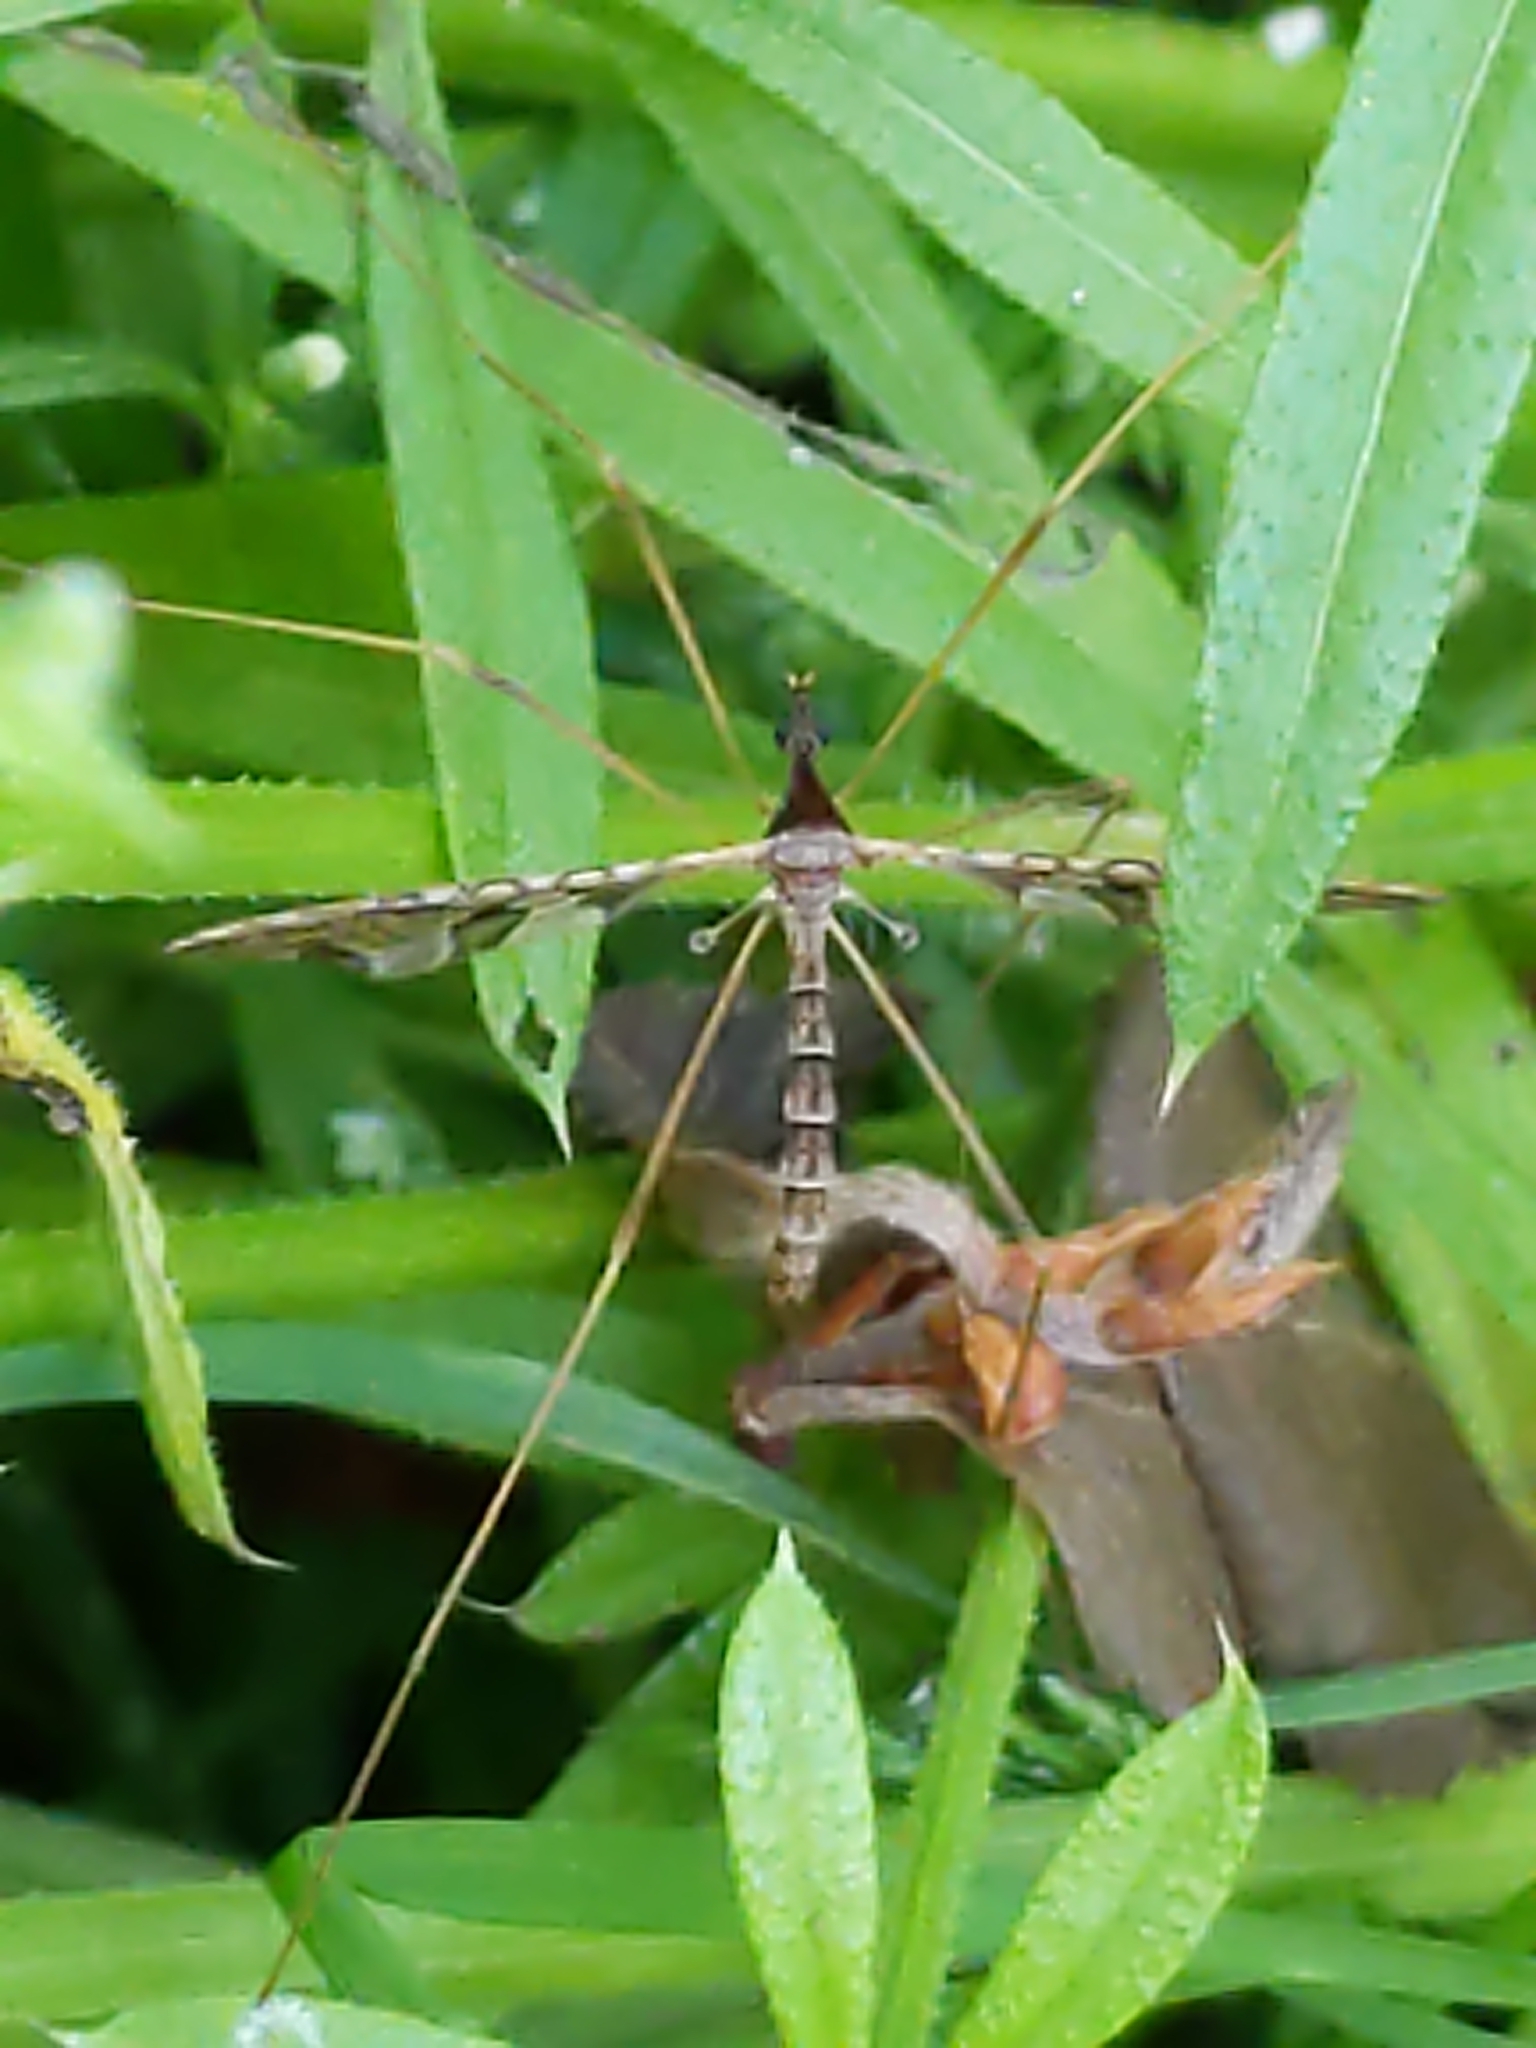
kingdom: Animalia
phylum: Arthropoda
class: Insecta
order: Diptera
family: Limoniidae
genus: Epiphragma
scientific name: Epiphragma solatrix
